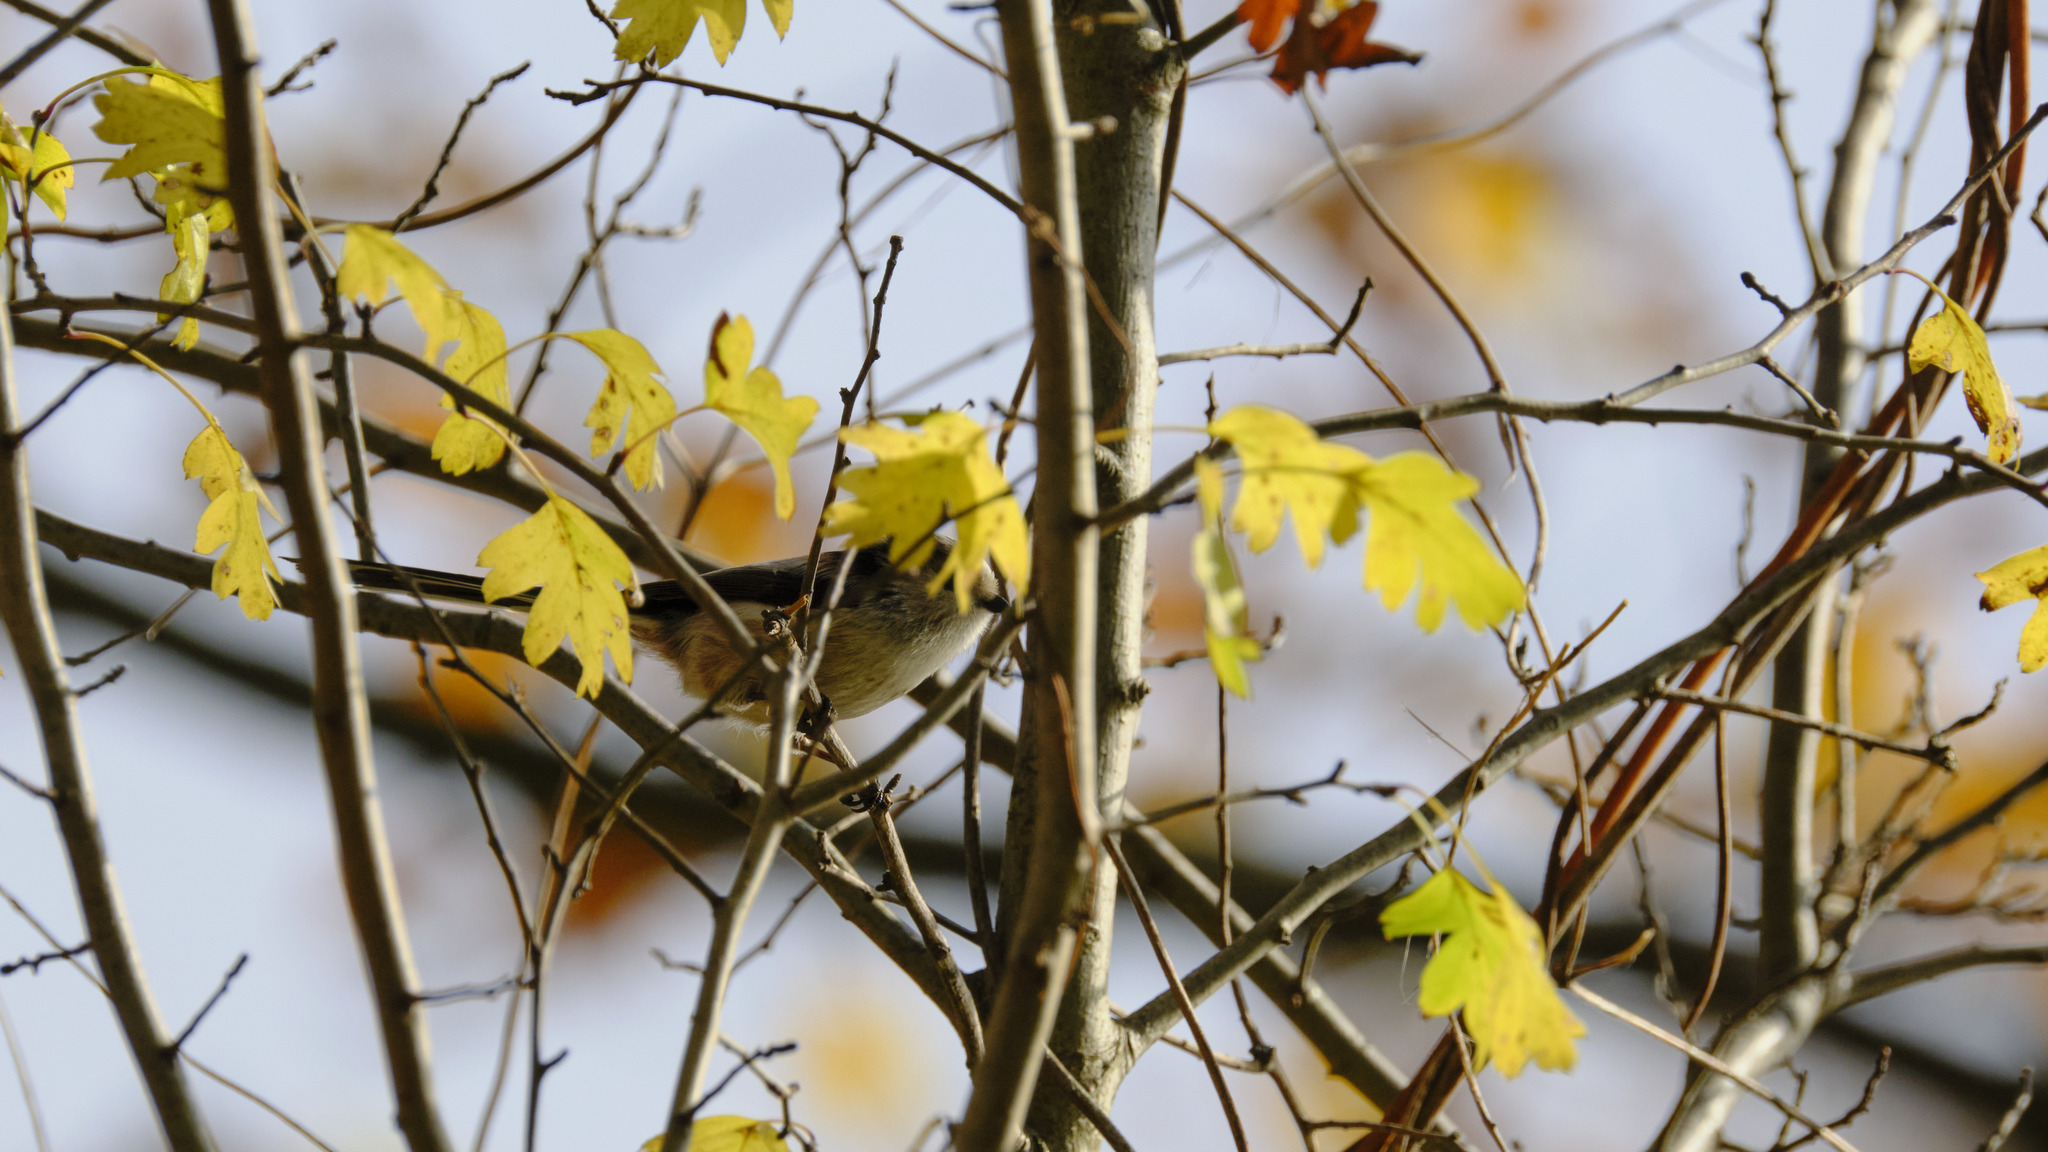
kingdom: Animalia
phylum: Chordata
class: Aves
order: Passeriformes
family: Aegithalidae
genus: Aegithalos
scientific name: Aegithalos caudatus
